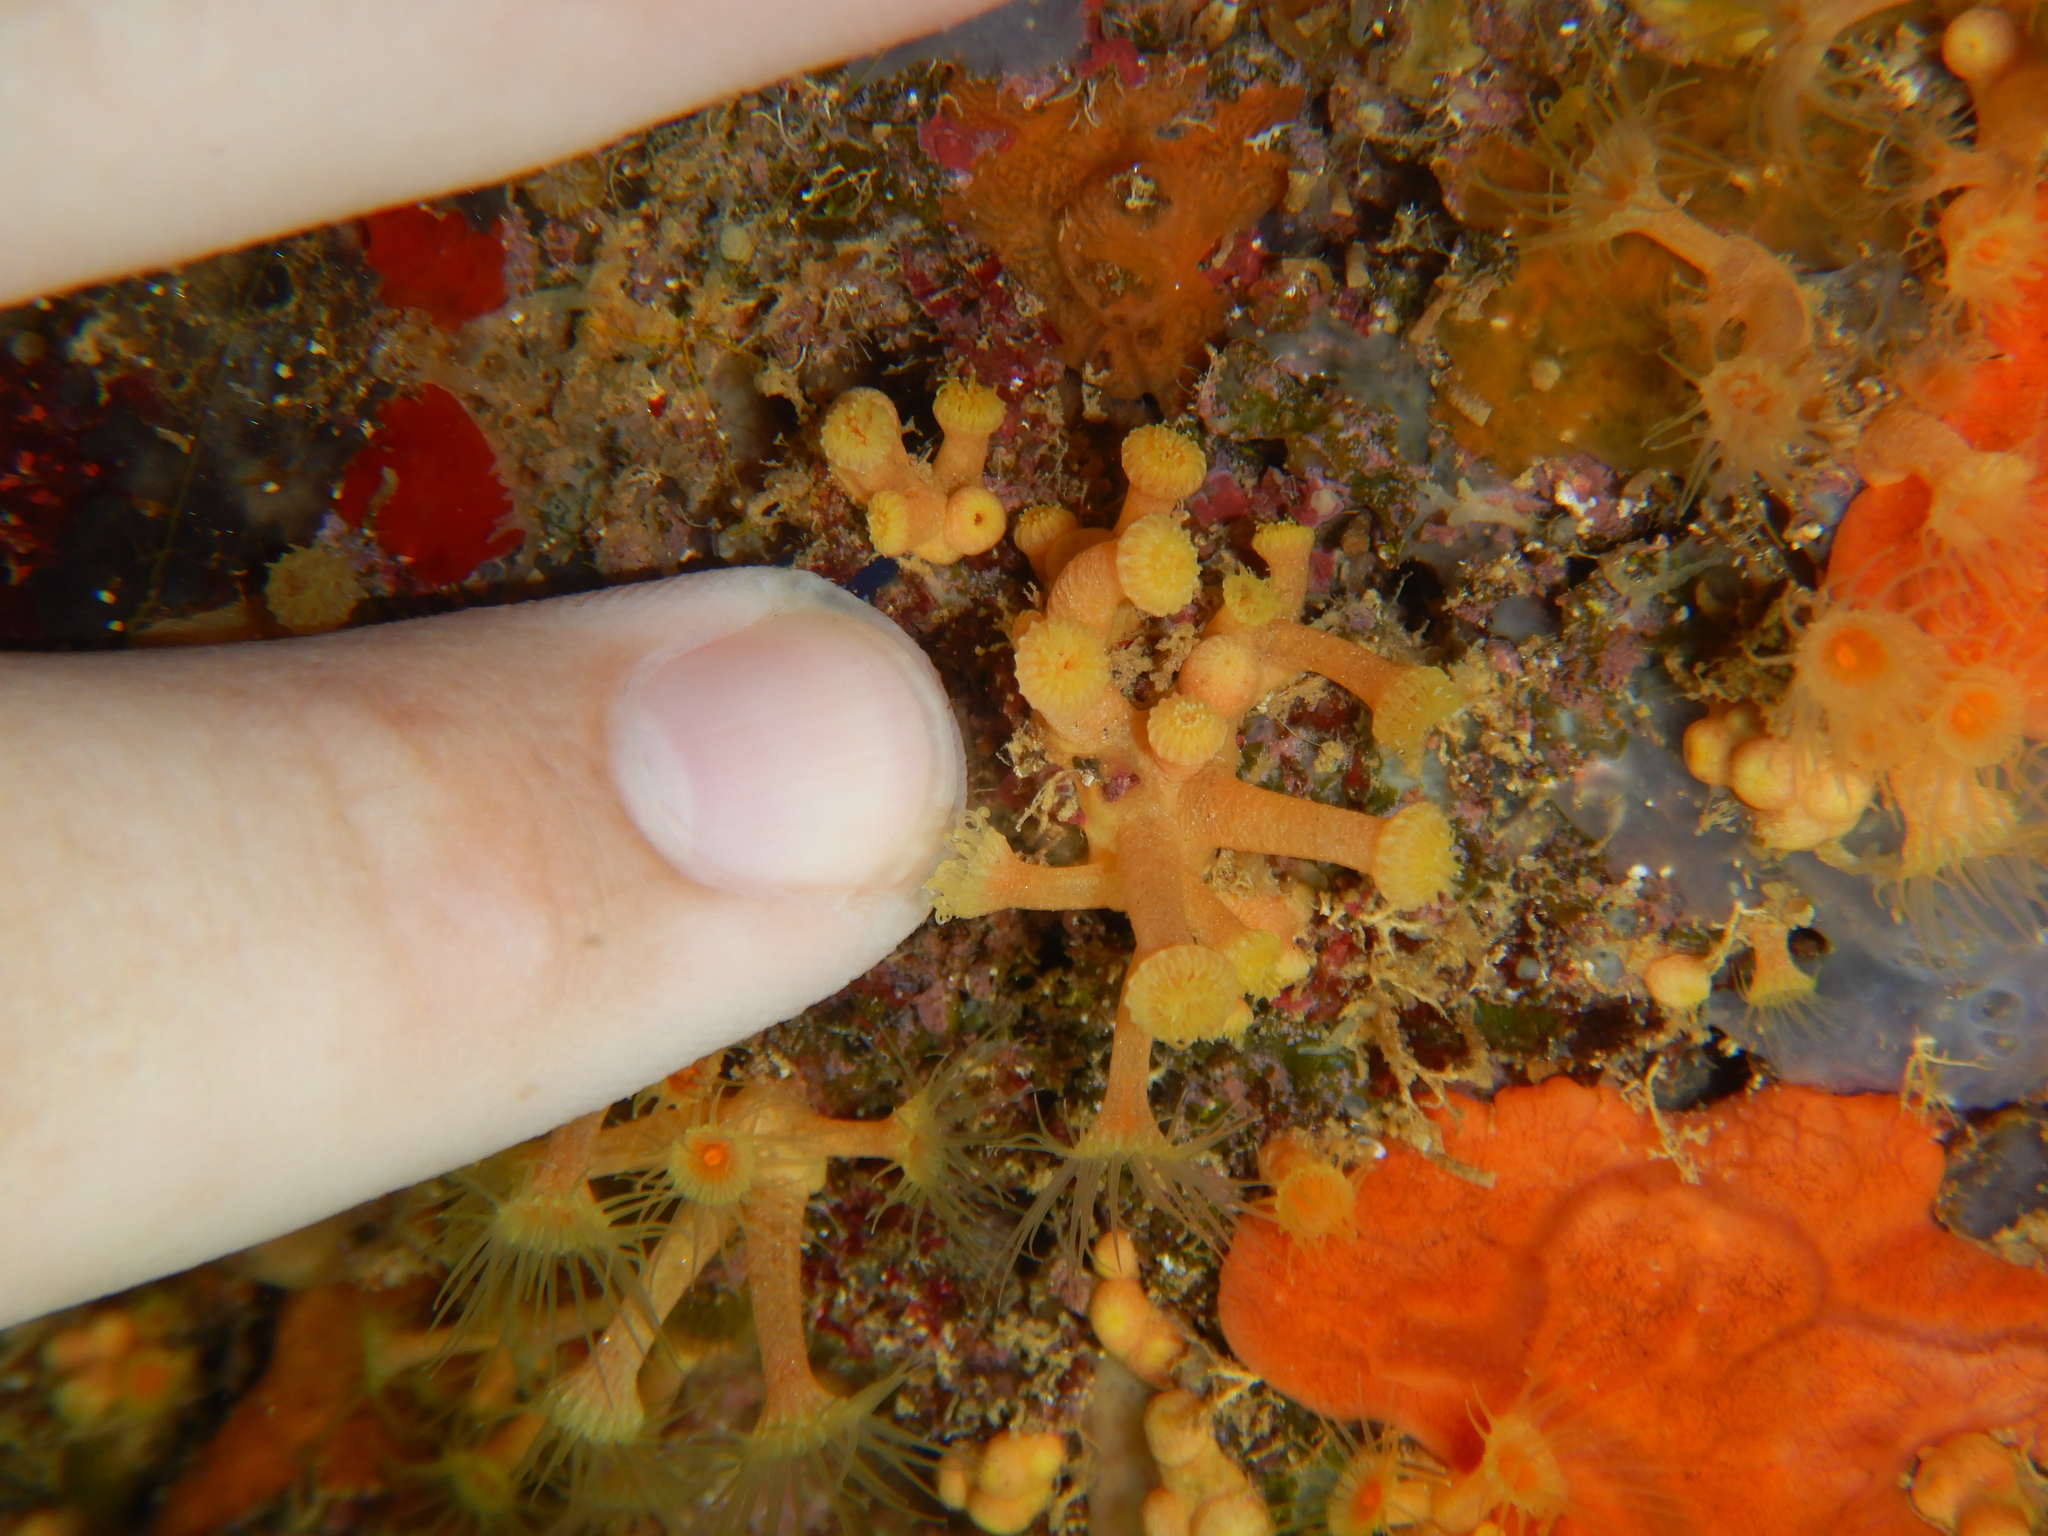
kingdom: Animalia
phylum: Cnidaria
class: Anthozoa
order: Zoantharia
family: Parazoanthidae
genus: Parazoanthus
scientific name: Parazoanthus axinellae
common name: Yellow cluster anemone
